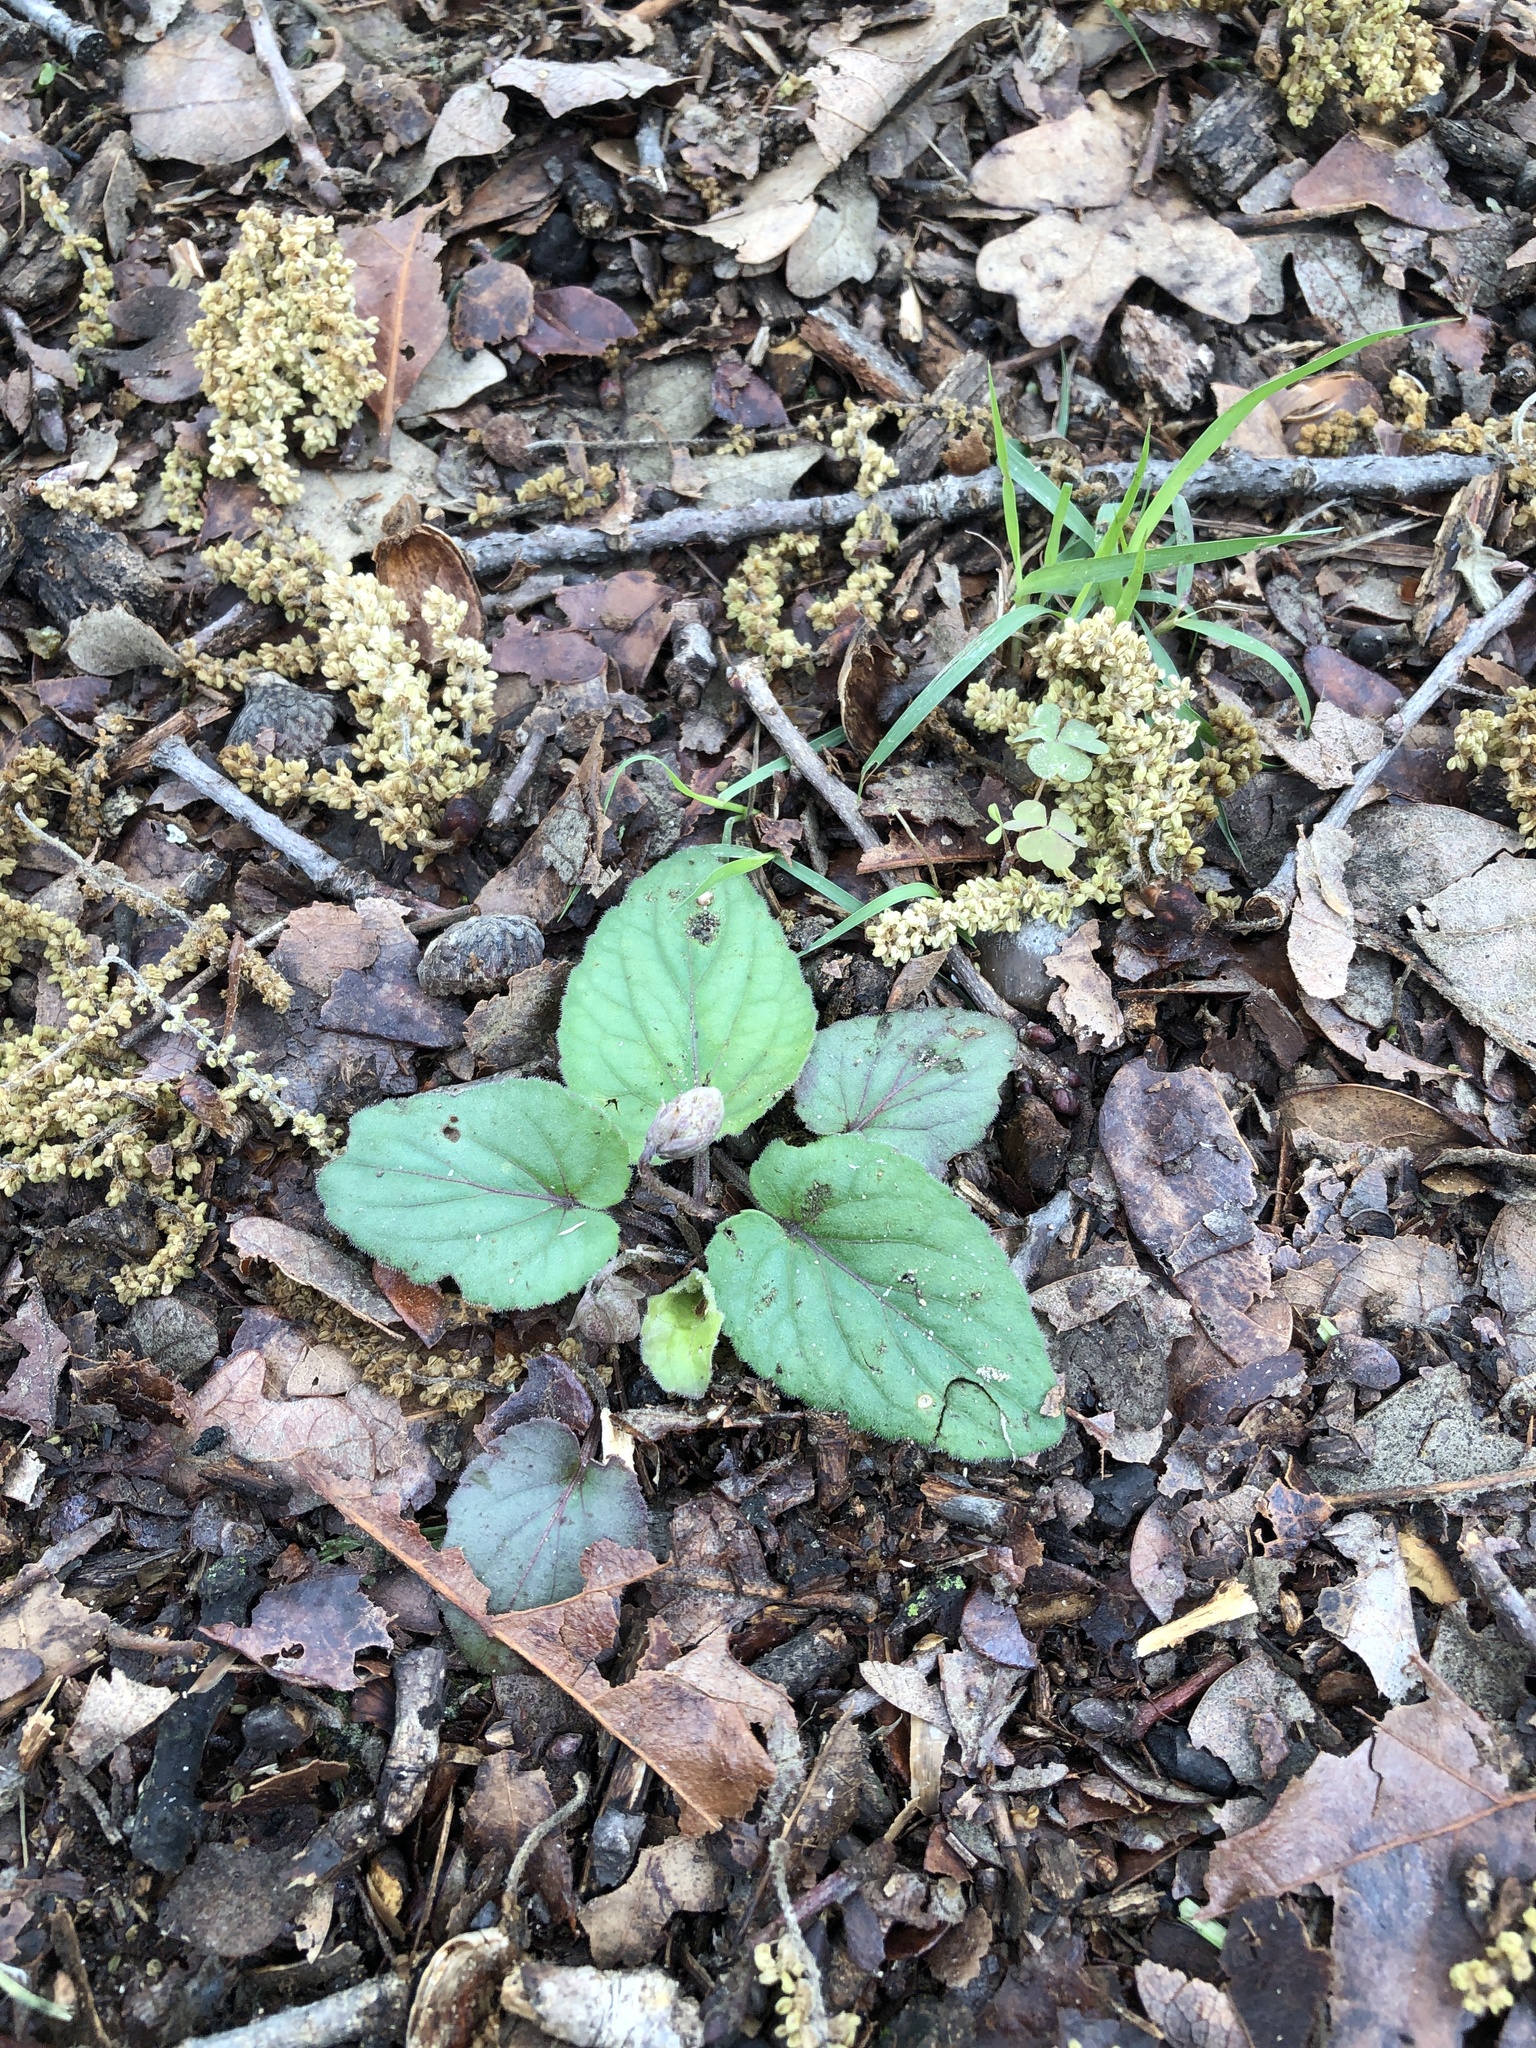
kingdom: Plantae
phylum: Tracheophyta
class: Magnoliopsida
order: Malpighiales
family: Violaceae
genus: Viola
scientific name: Viola villosa
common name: Carolina violet
